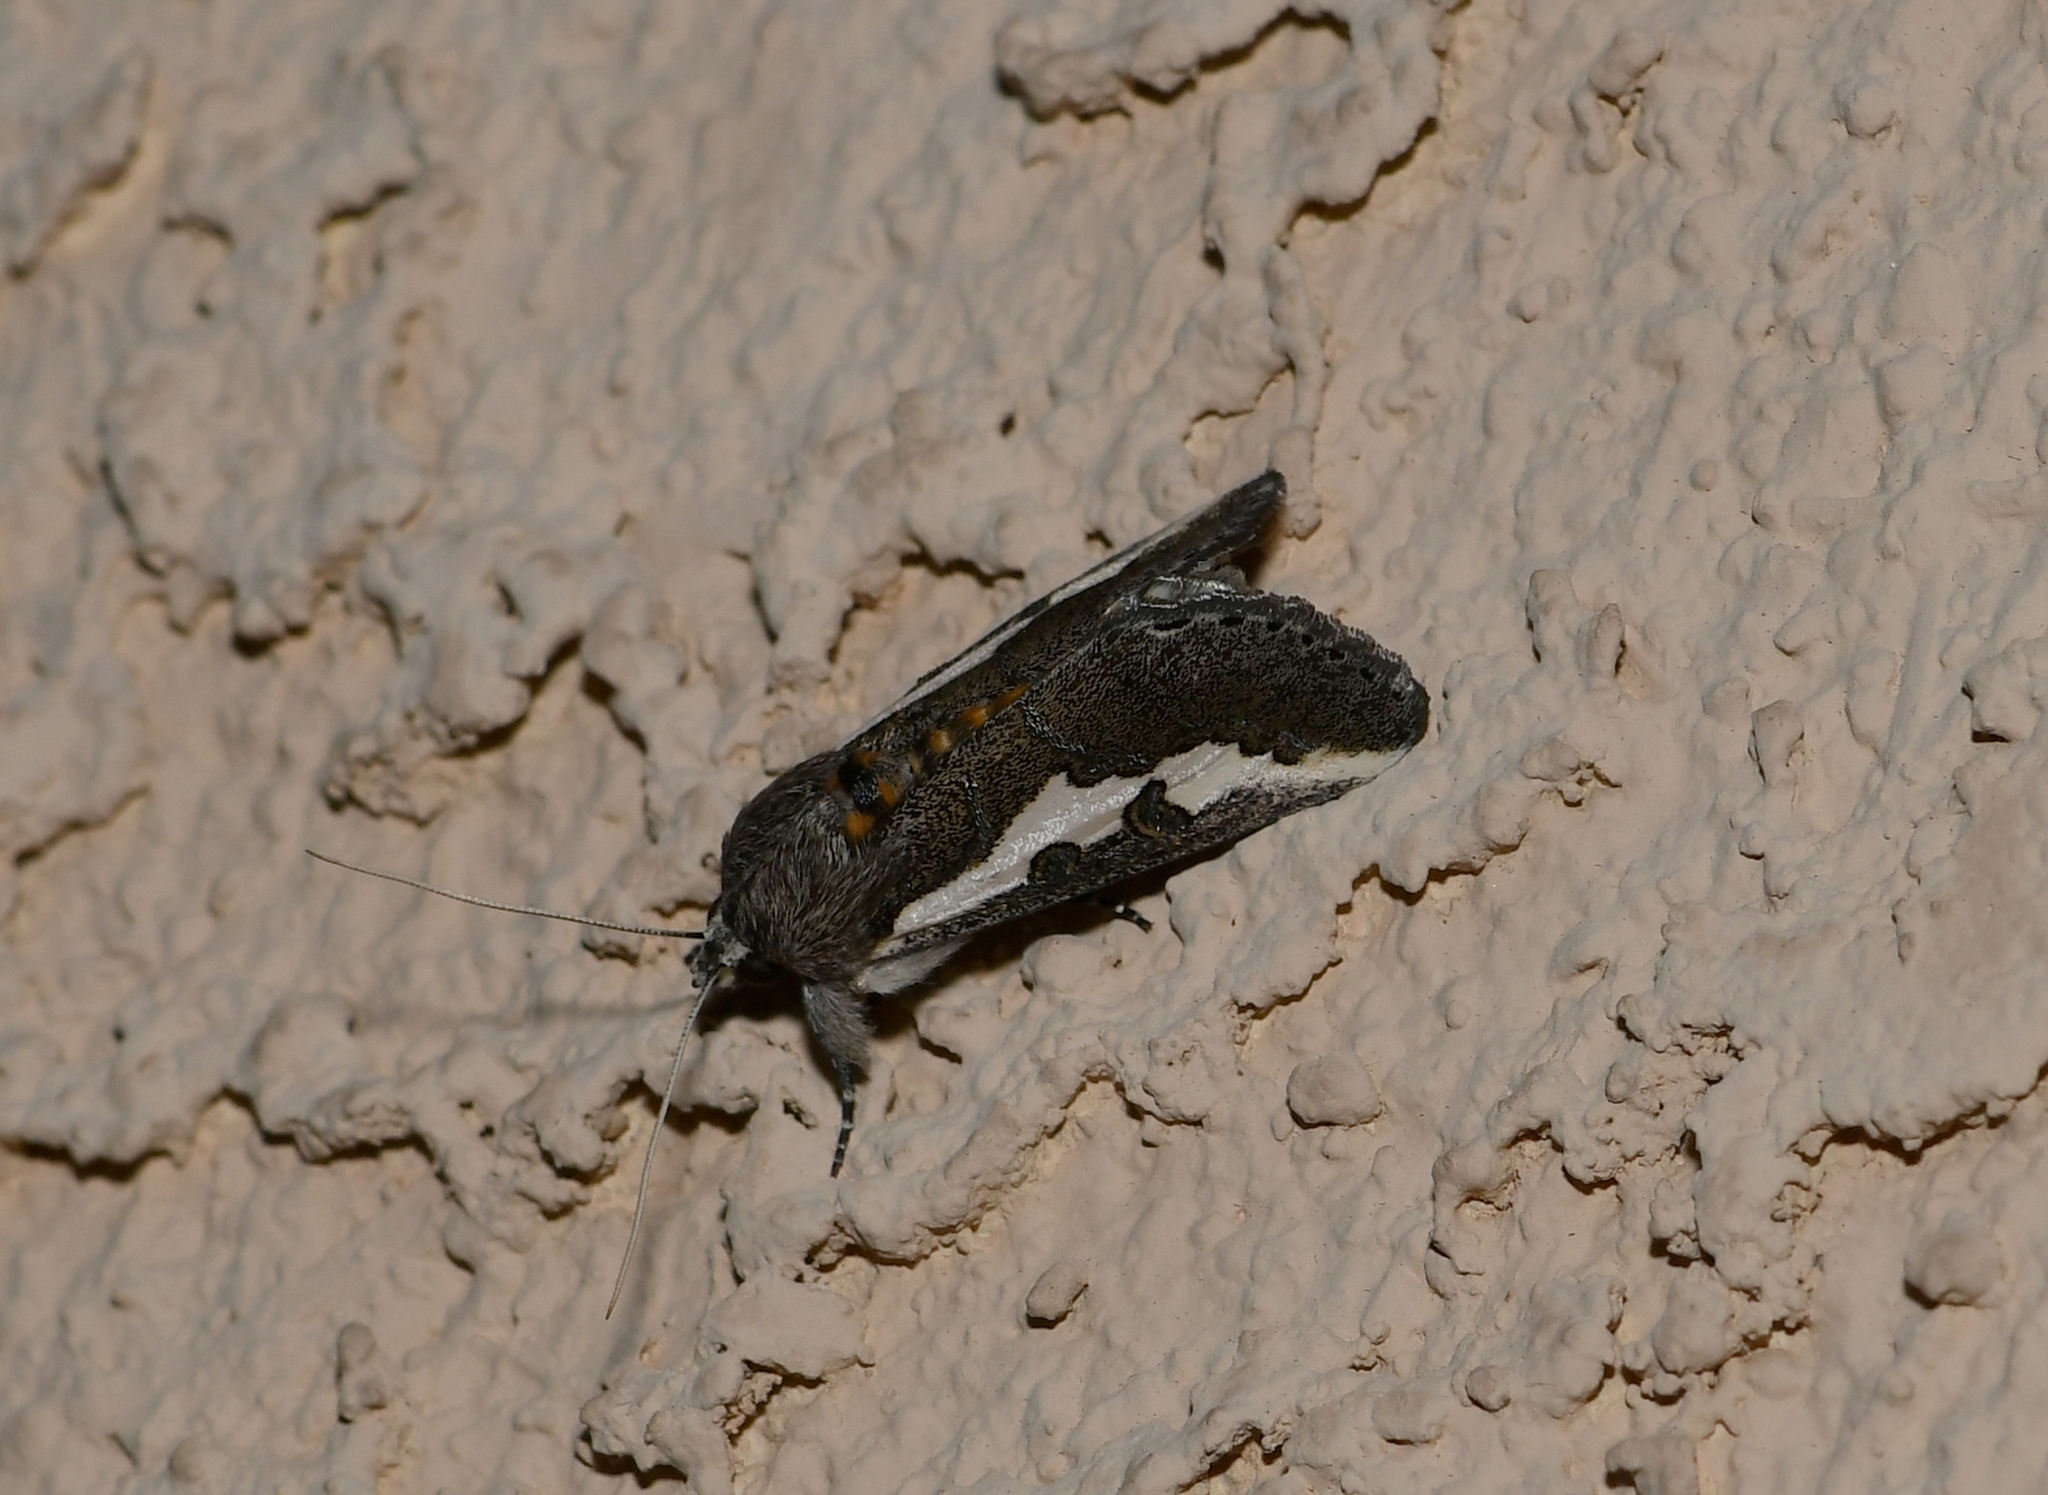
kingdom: Animalia
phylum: Arthropoda
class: Insecta
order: Lepidoptera
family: Noctuidae
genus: Euscirrhopterus
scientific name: Euscirrhopterus gloveri
